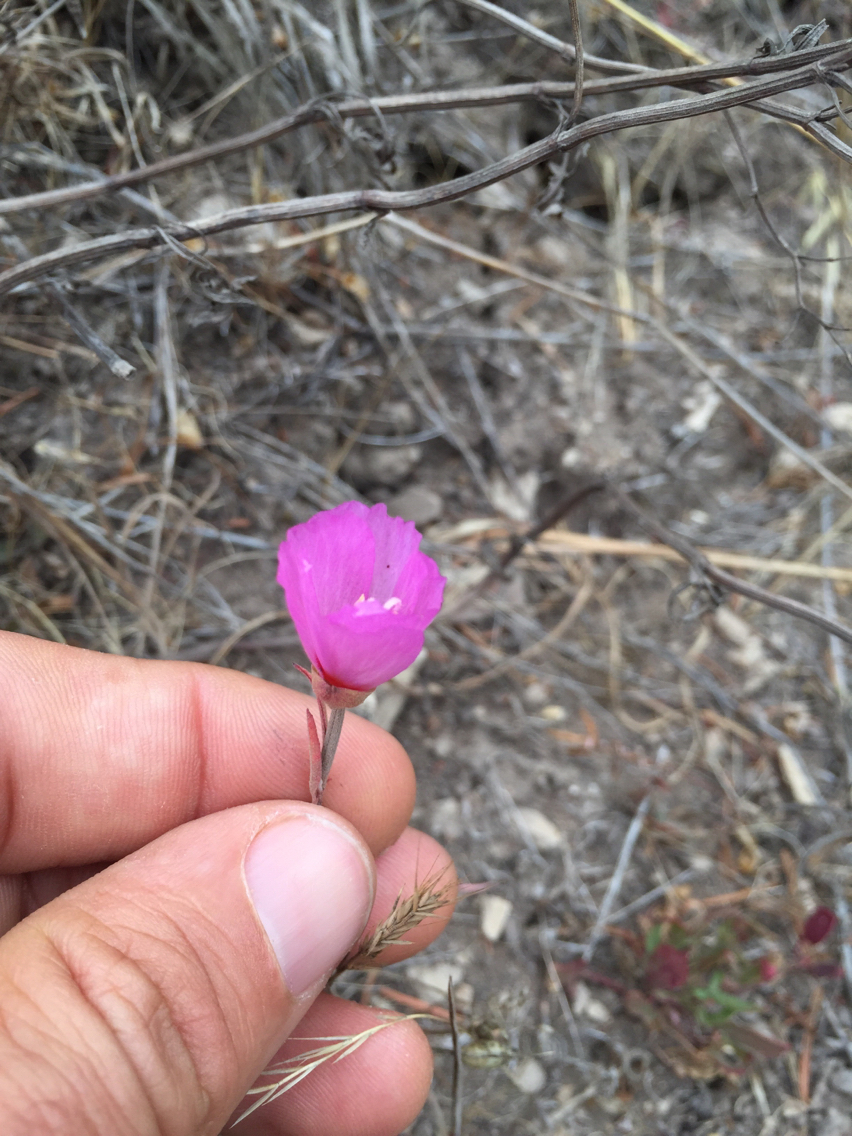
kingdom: Plantae
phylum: Tracheophyta
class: Magnoliopsida
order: Myrtales
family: Onagraceae
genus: Clarkia
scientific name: Clarkia rubicunda
